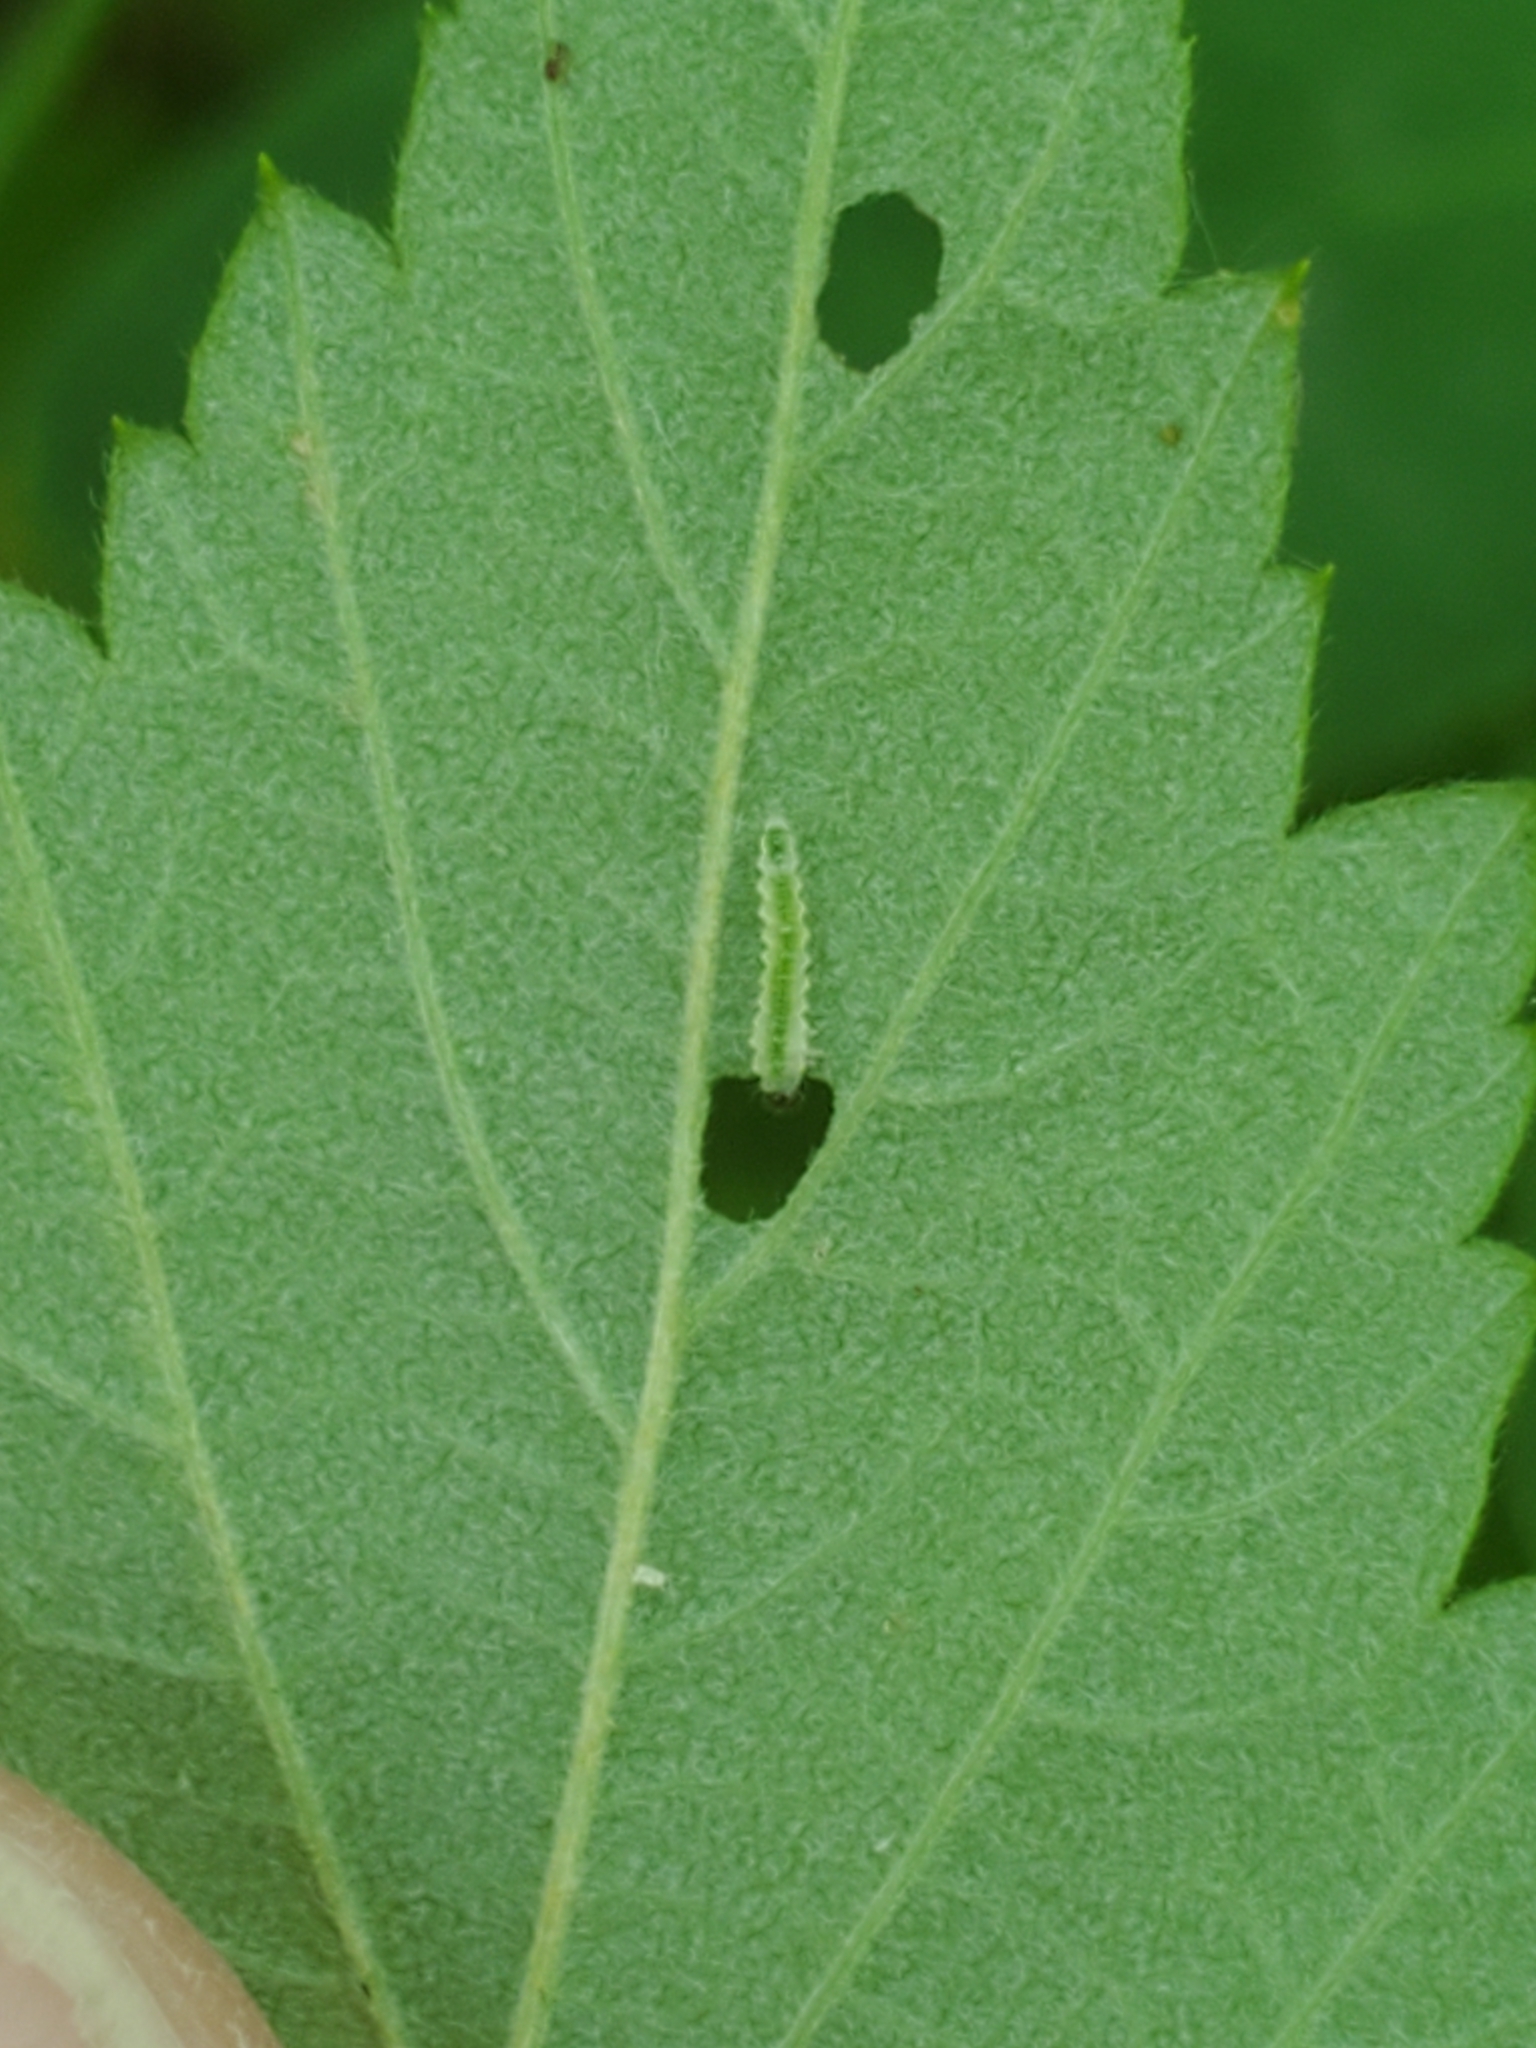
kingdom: Animalia
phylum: Arthropoda
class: Insecta
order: Diptera
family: Agromyzidae
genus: Agromyza
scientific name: Agromyza vockerothi
